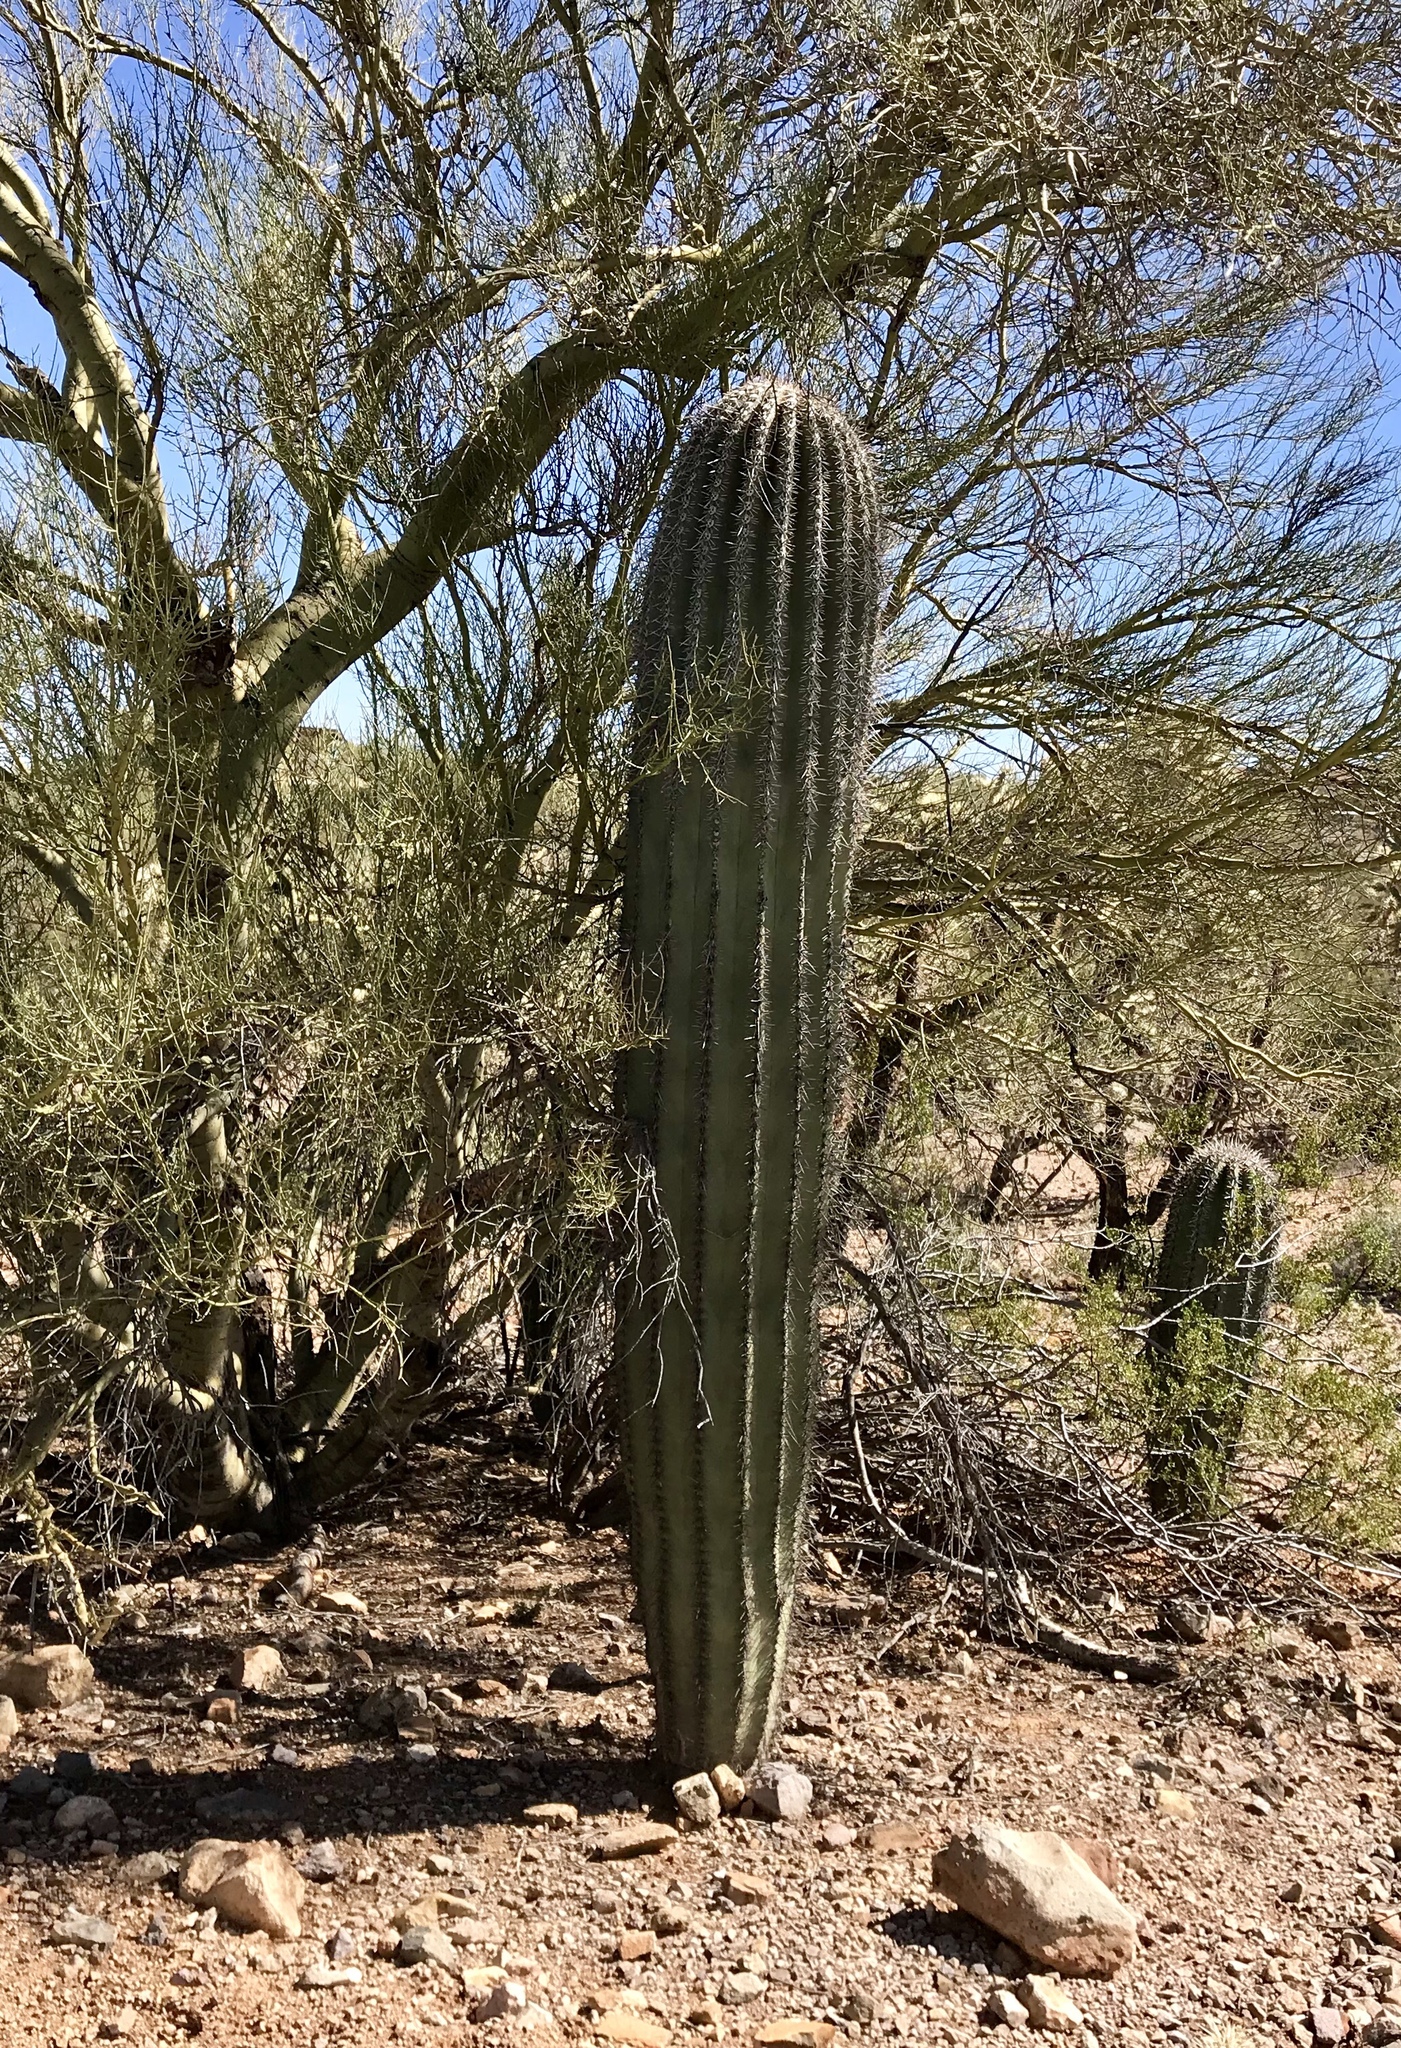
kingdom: Plantae
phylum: Tracheophyta
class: Magnoliopsida
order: Caryophyllales
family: Cactaceae
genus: Carnegiea
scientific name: Carnegiea gigantea
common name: Saguaro
